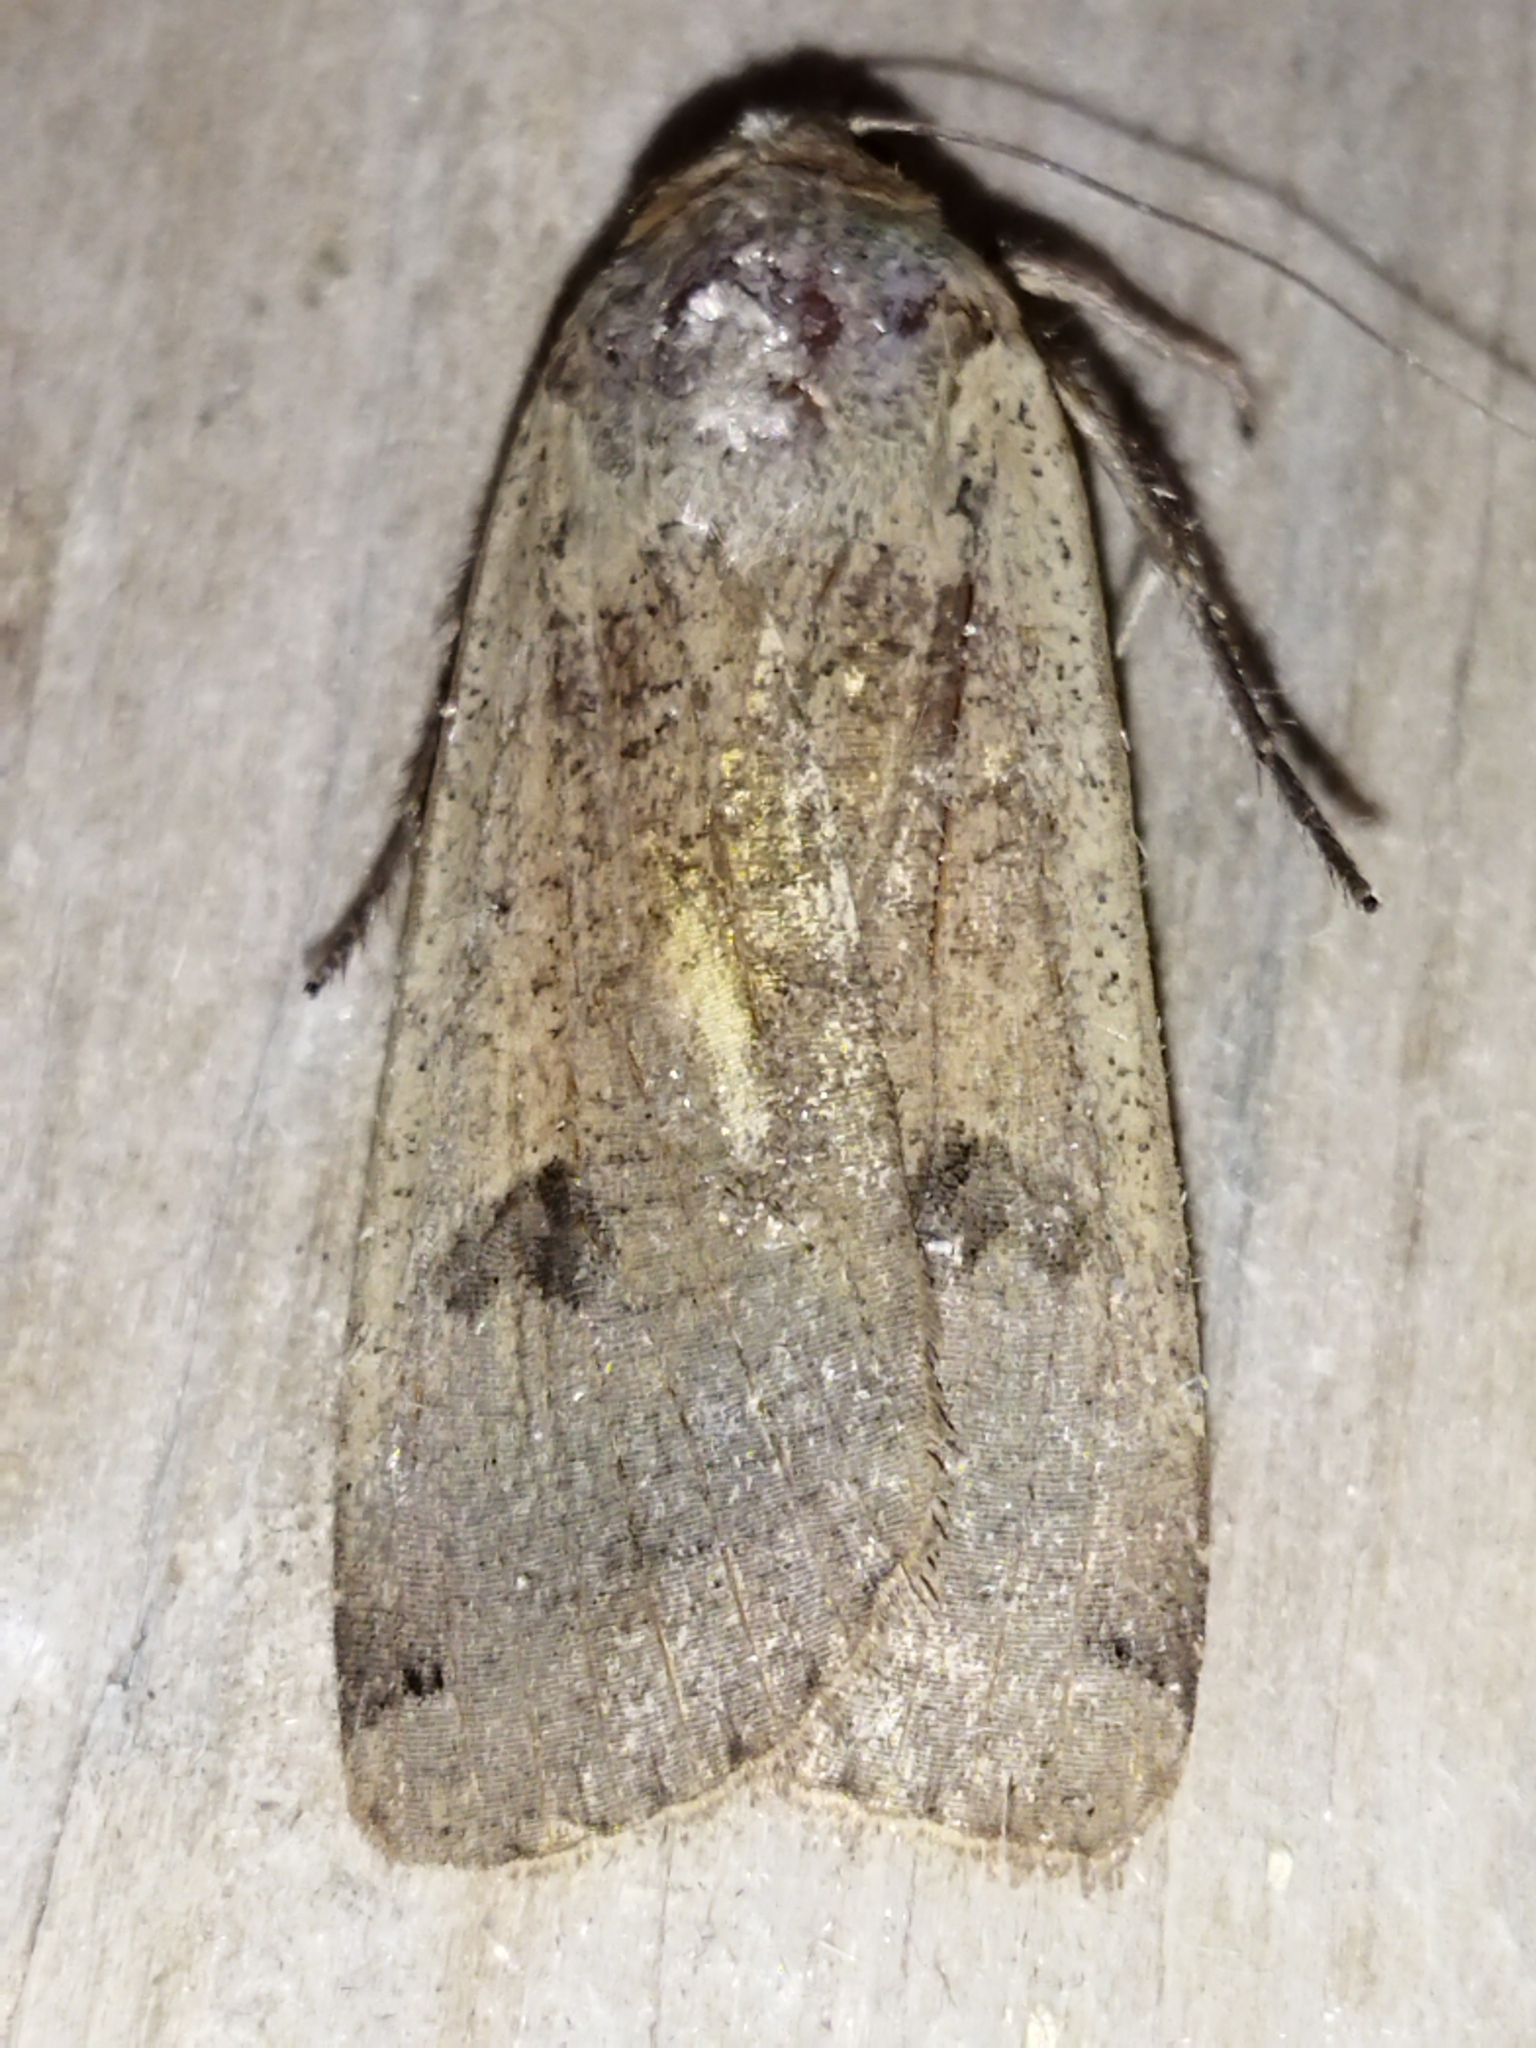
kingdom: Animalia
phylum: Arthropoda
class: Insecta
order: Lepidoptera
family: Noctuidae
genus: Noctua
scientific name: Noctua pronuba
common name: Large yellow underwing
